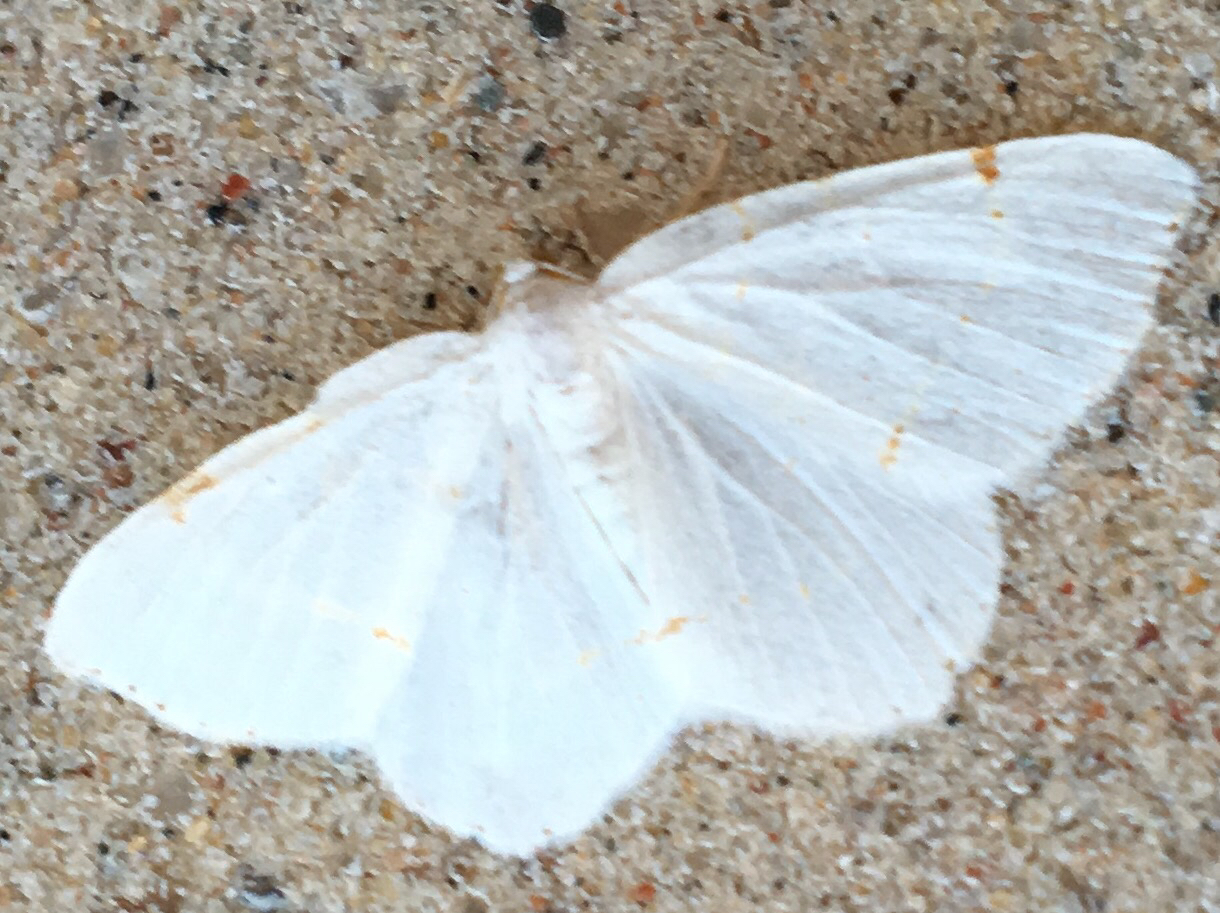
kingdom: Animalia
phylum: Arthropoda
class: Insecta
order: Lepidoptera
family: Geometridae
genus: Macaria
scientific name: Macaria pustularia
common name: Lesser maple spanworm moth
